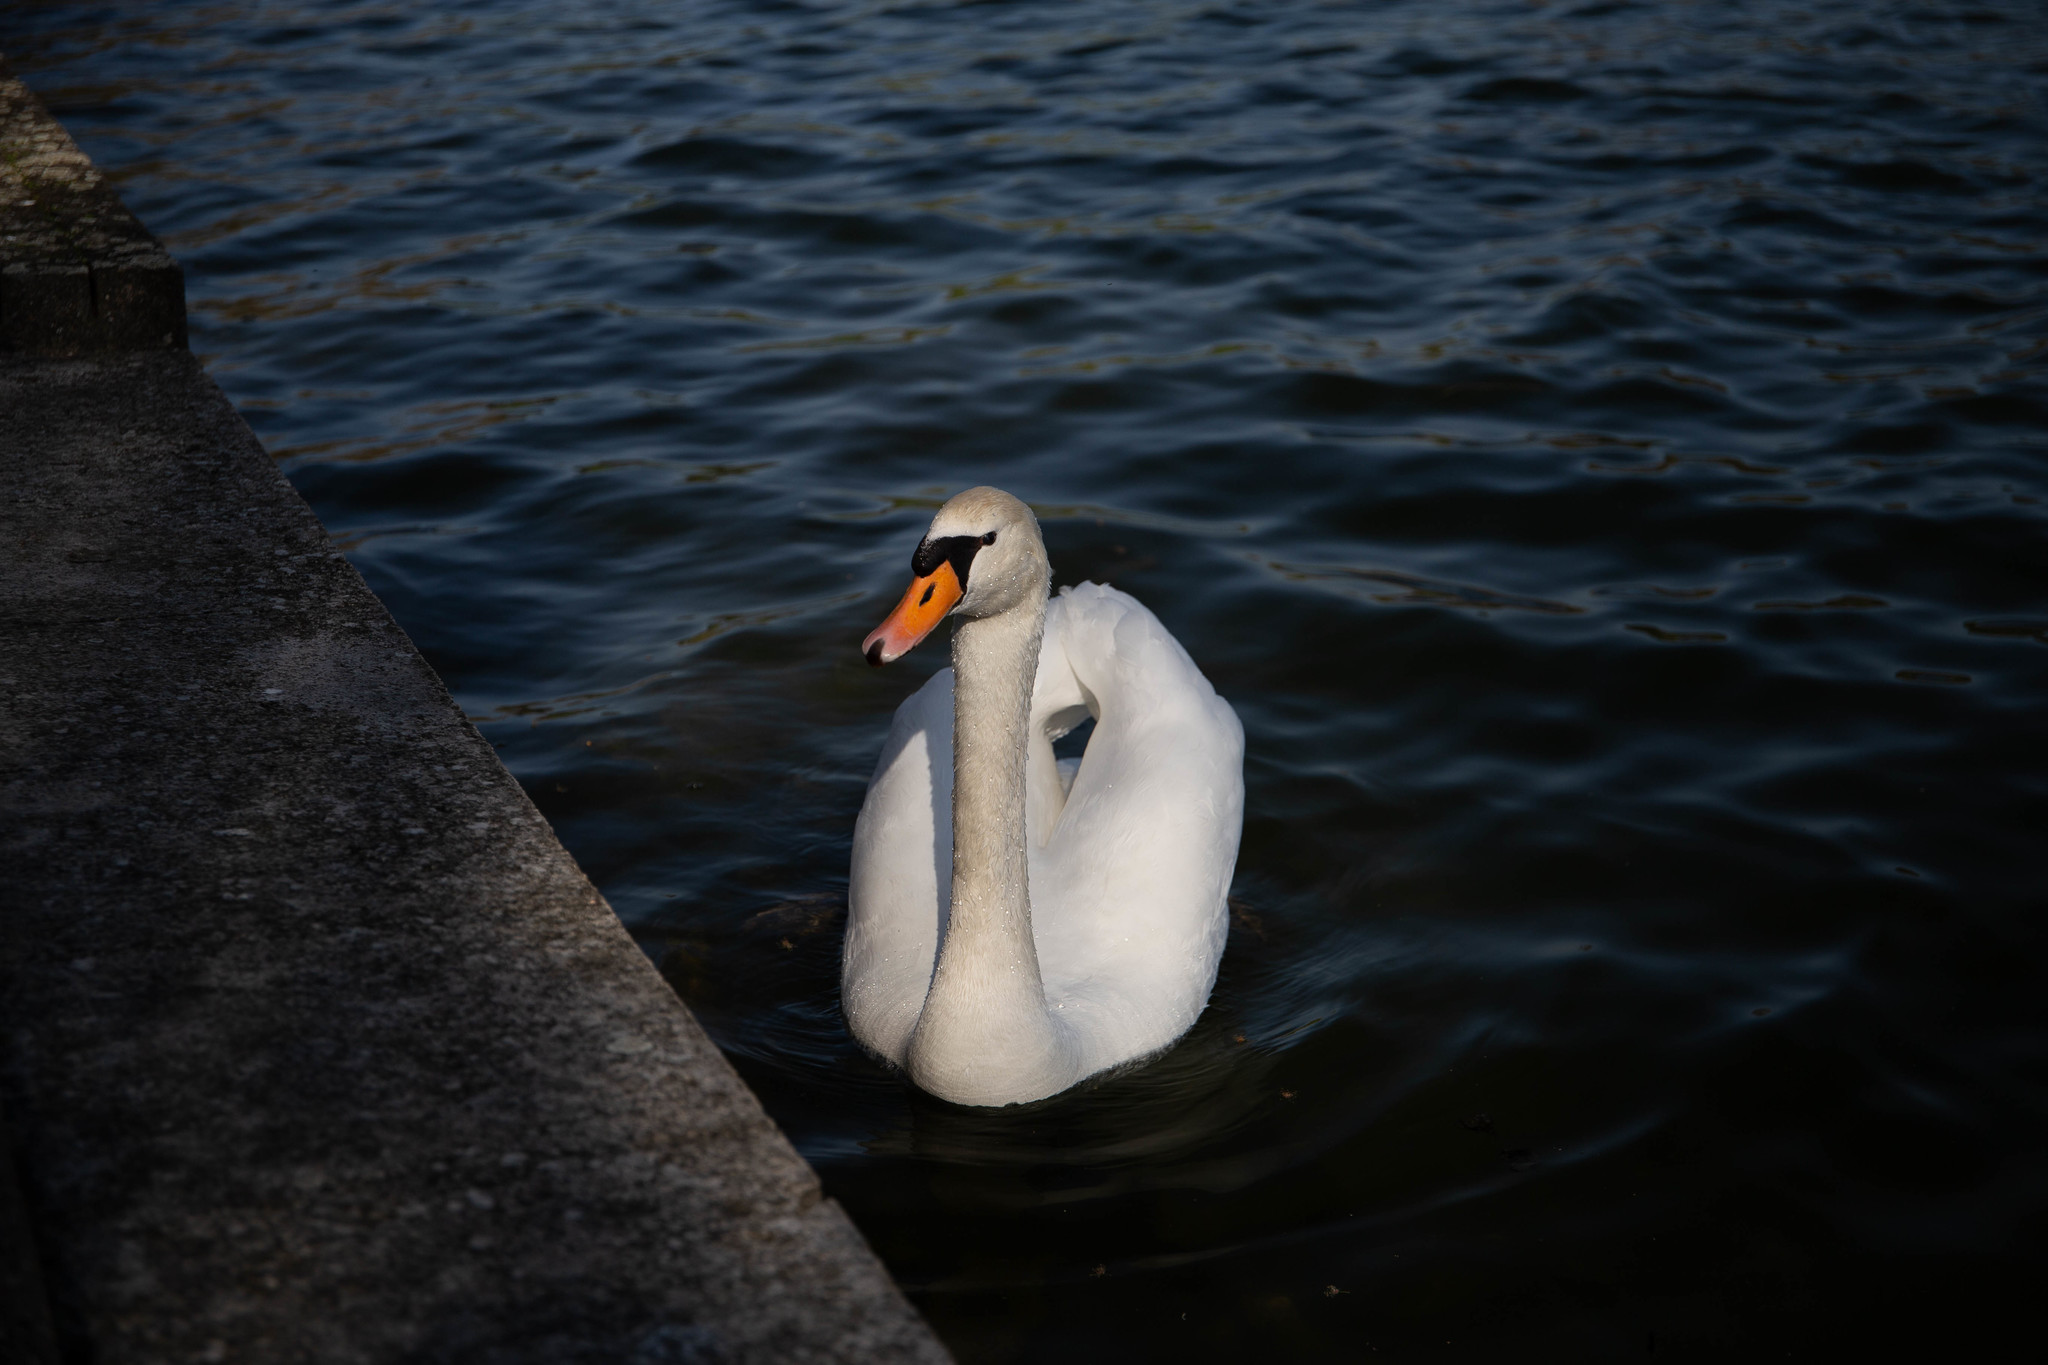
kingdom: Animalia
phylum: Chordata
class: Aves
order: Anseriformes
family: Anatidae
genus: Cygnus
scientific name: Cygnus olor
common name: Mute swan
